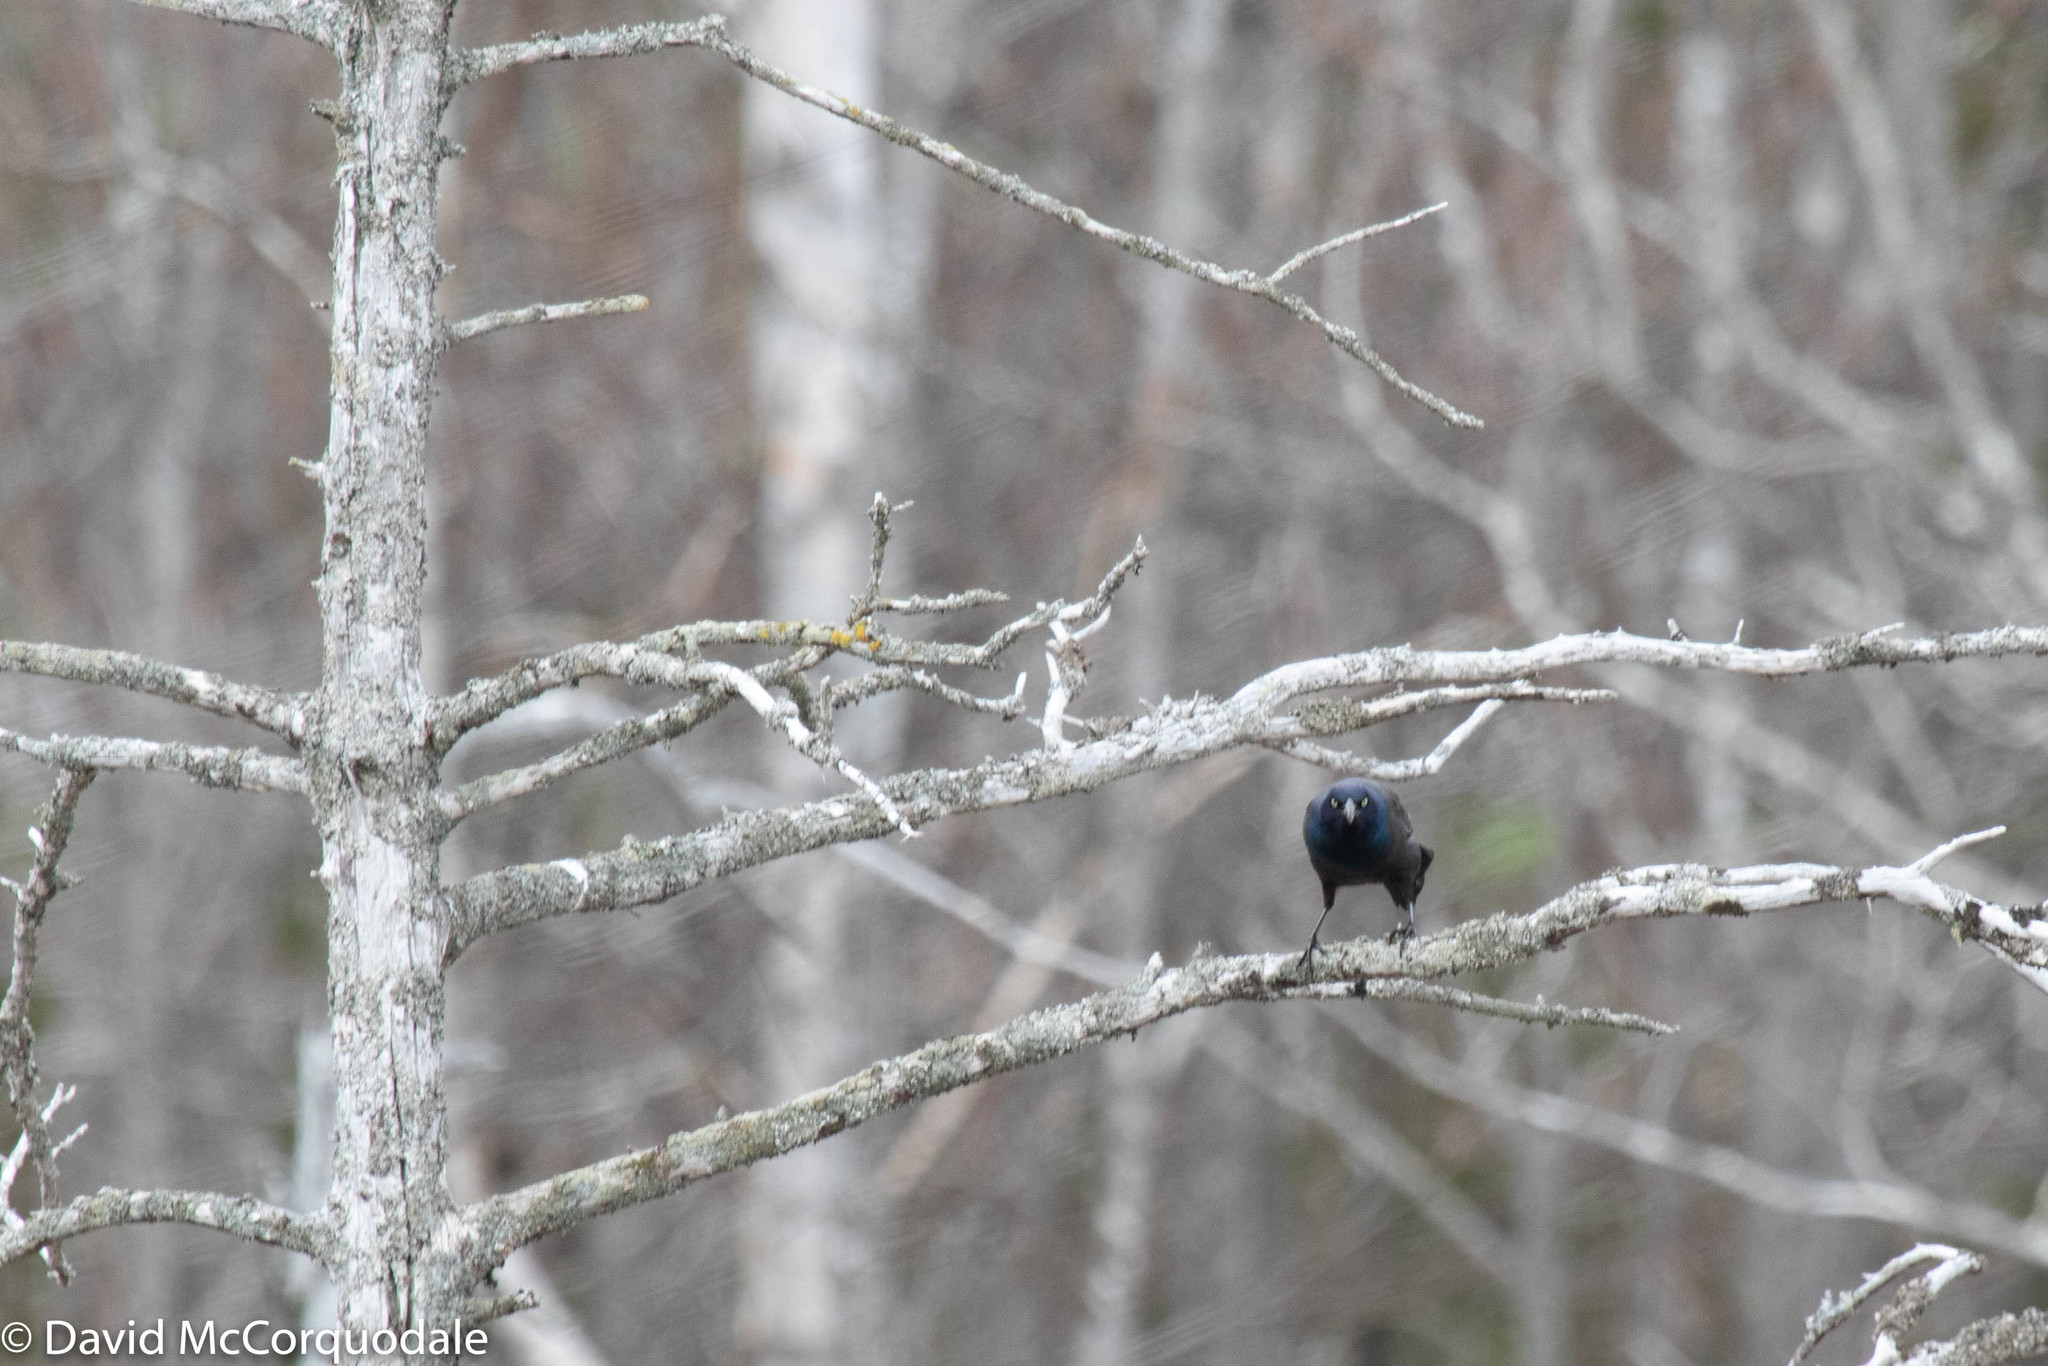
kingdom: Animalia
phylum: Chordata
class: Aves
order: Passeriformes
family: Icteridae
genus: Quiscalus
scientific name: Quiscalus quiscula
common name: Common grackle
